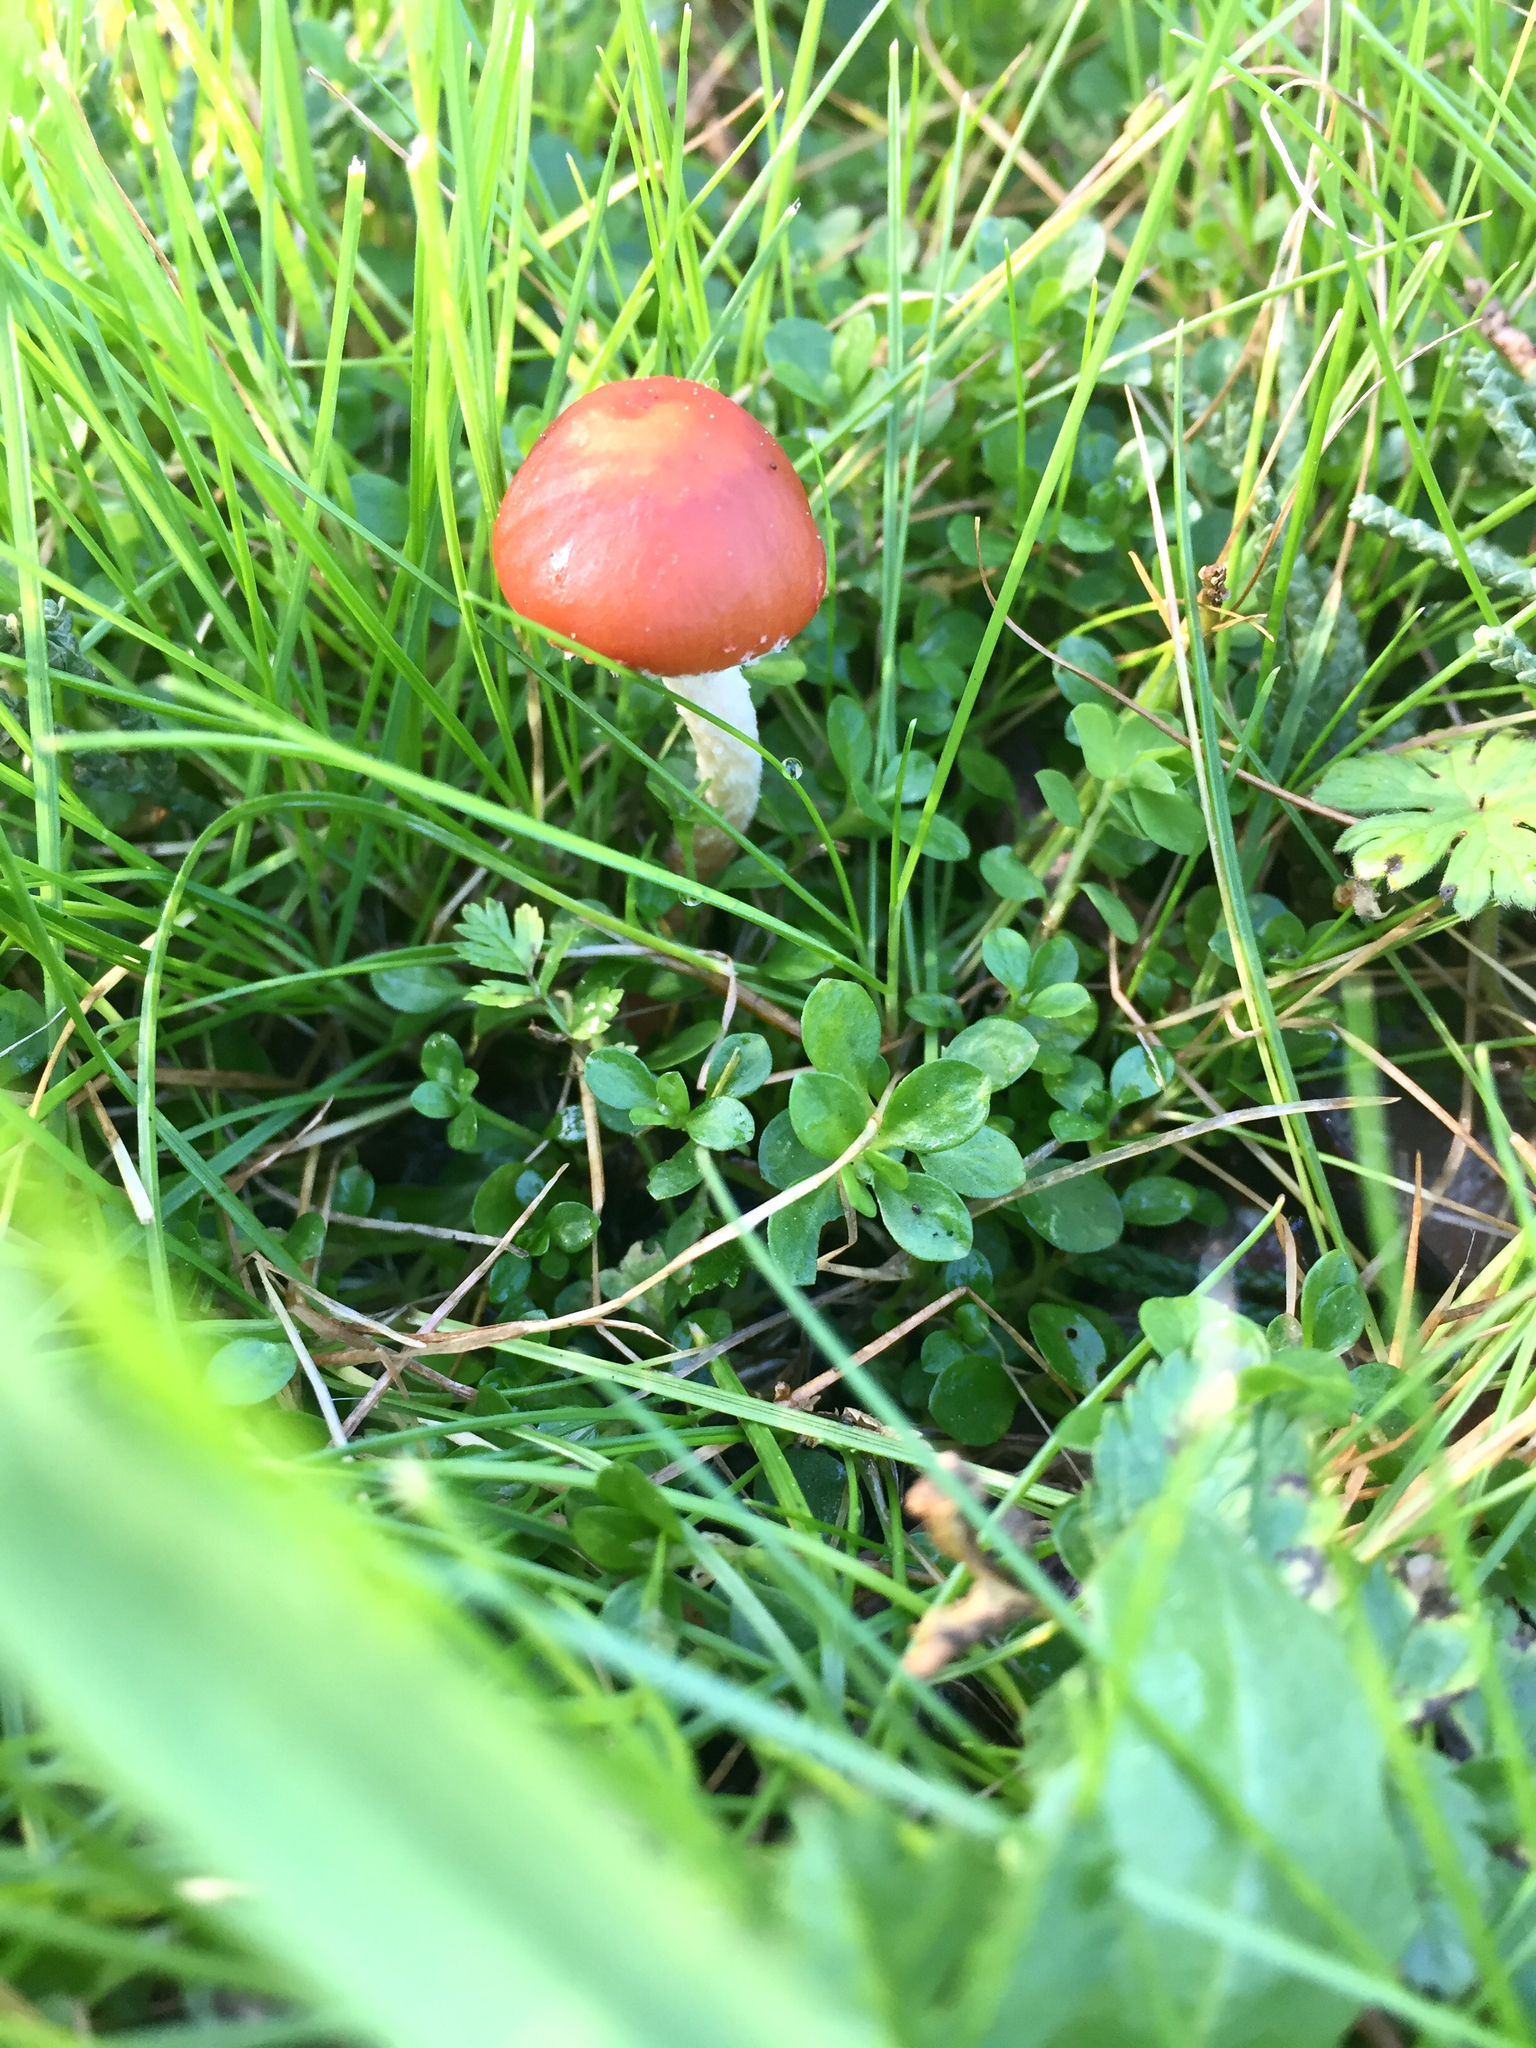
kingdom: Fungi
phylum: Basidiomycota
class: Agaricomycetes
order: Agaricales
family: Strophariaceae
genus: Leratiomyces
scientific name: Leratiomyces ceres
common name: Redlead roundhead
